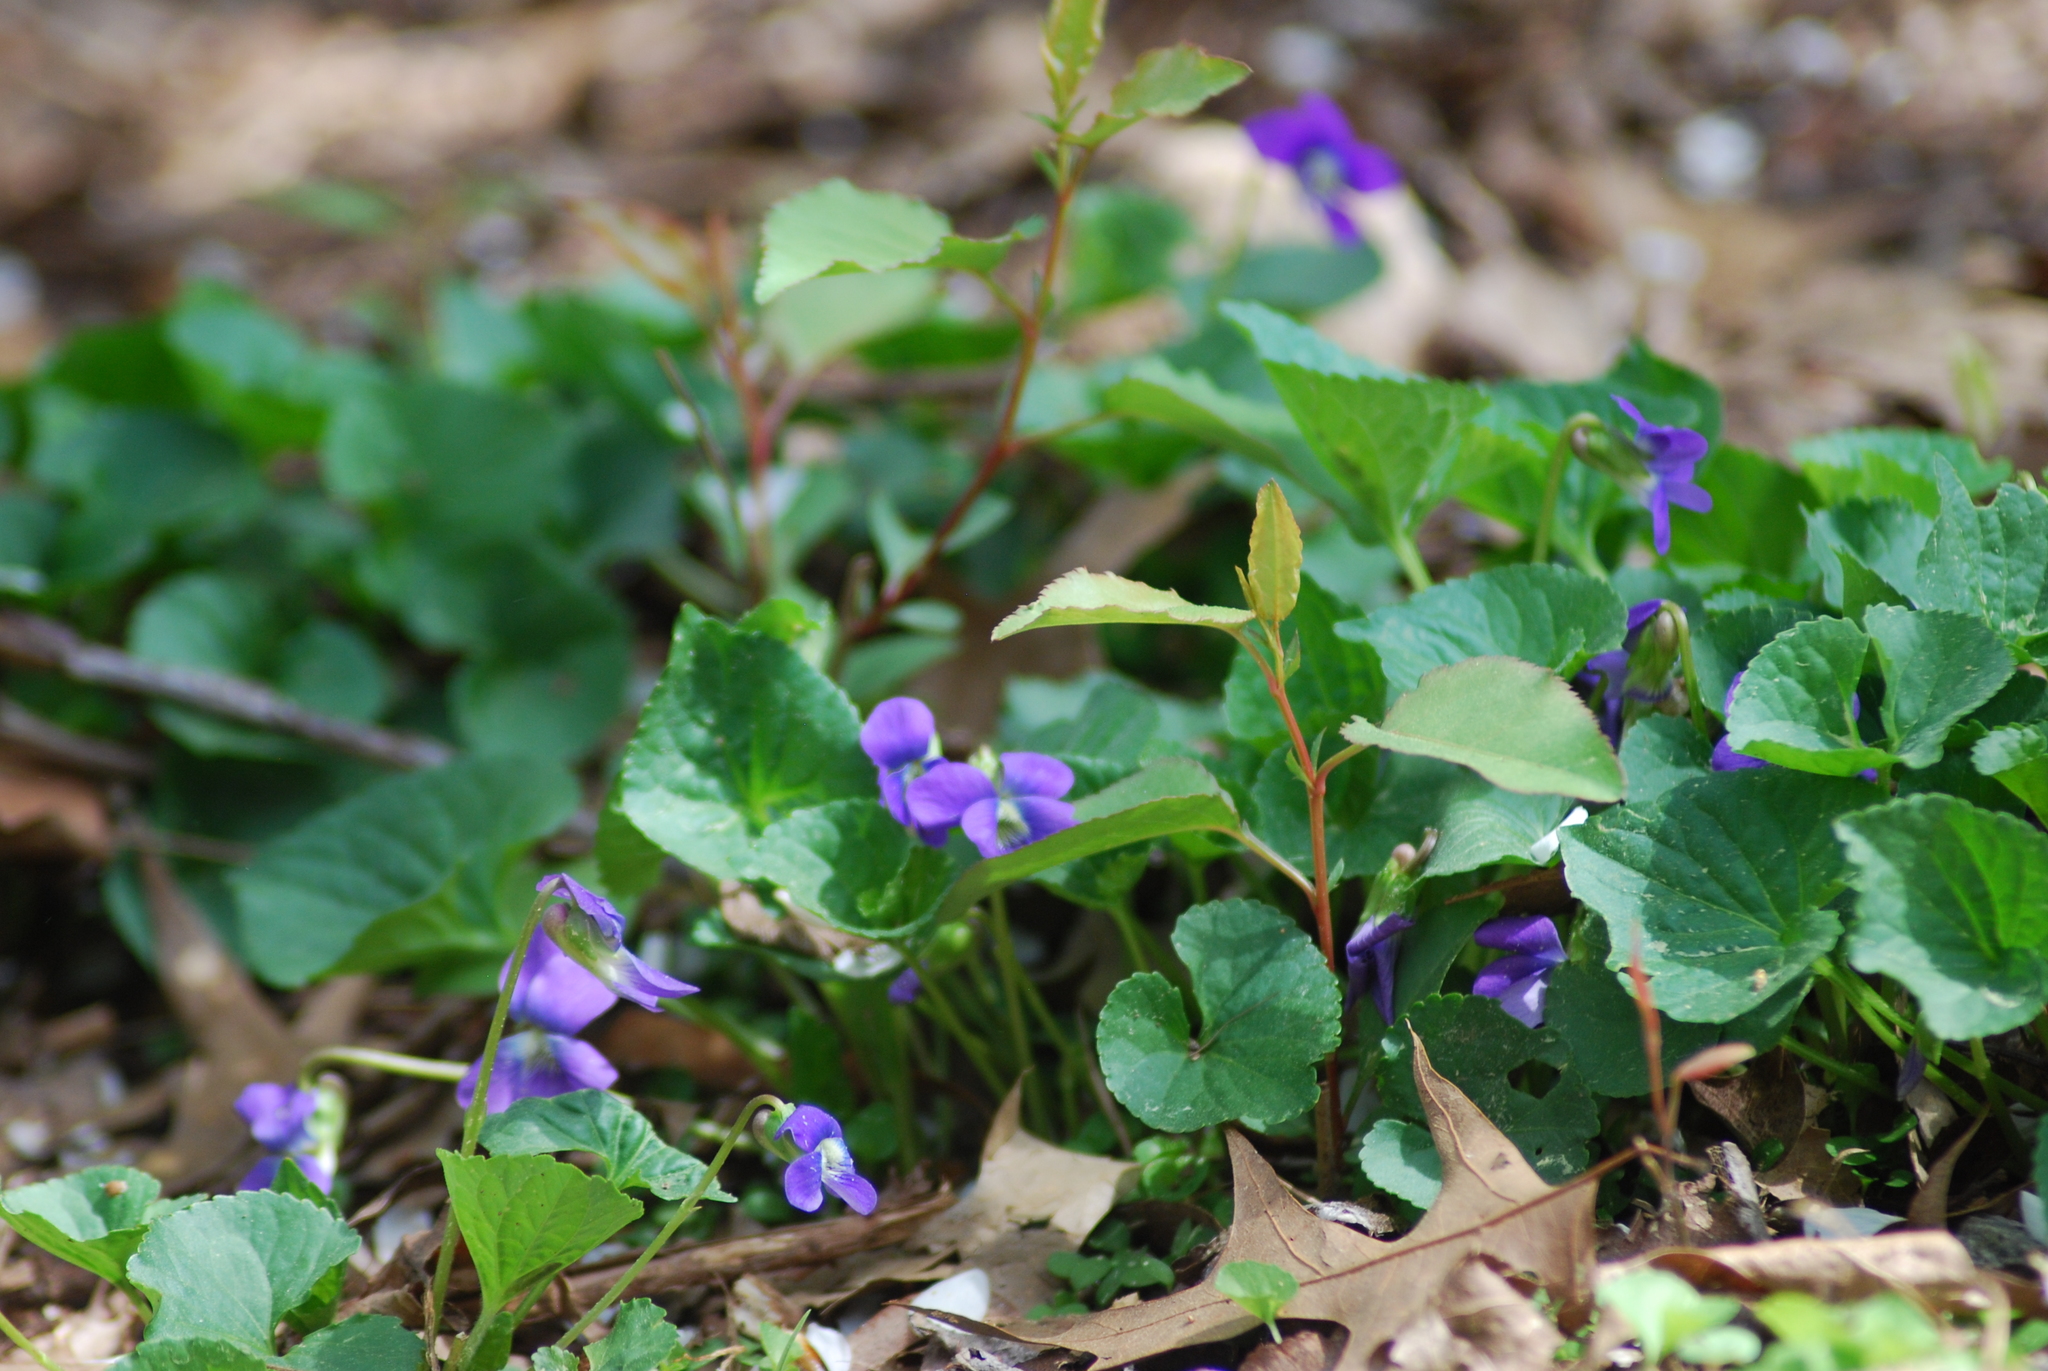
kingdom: Plantae
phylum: Tracheophyta
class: Magnoliopsida
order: Malpighiales
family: Violaceae
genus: Viola
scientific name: Viola sororia
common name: Dooryard violet
